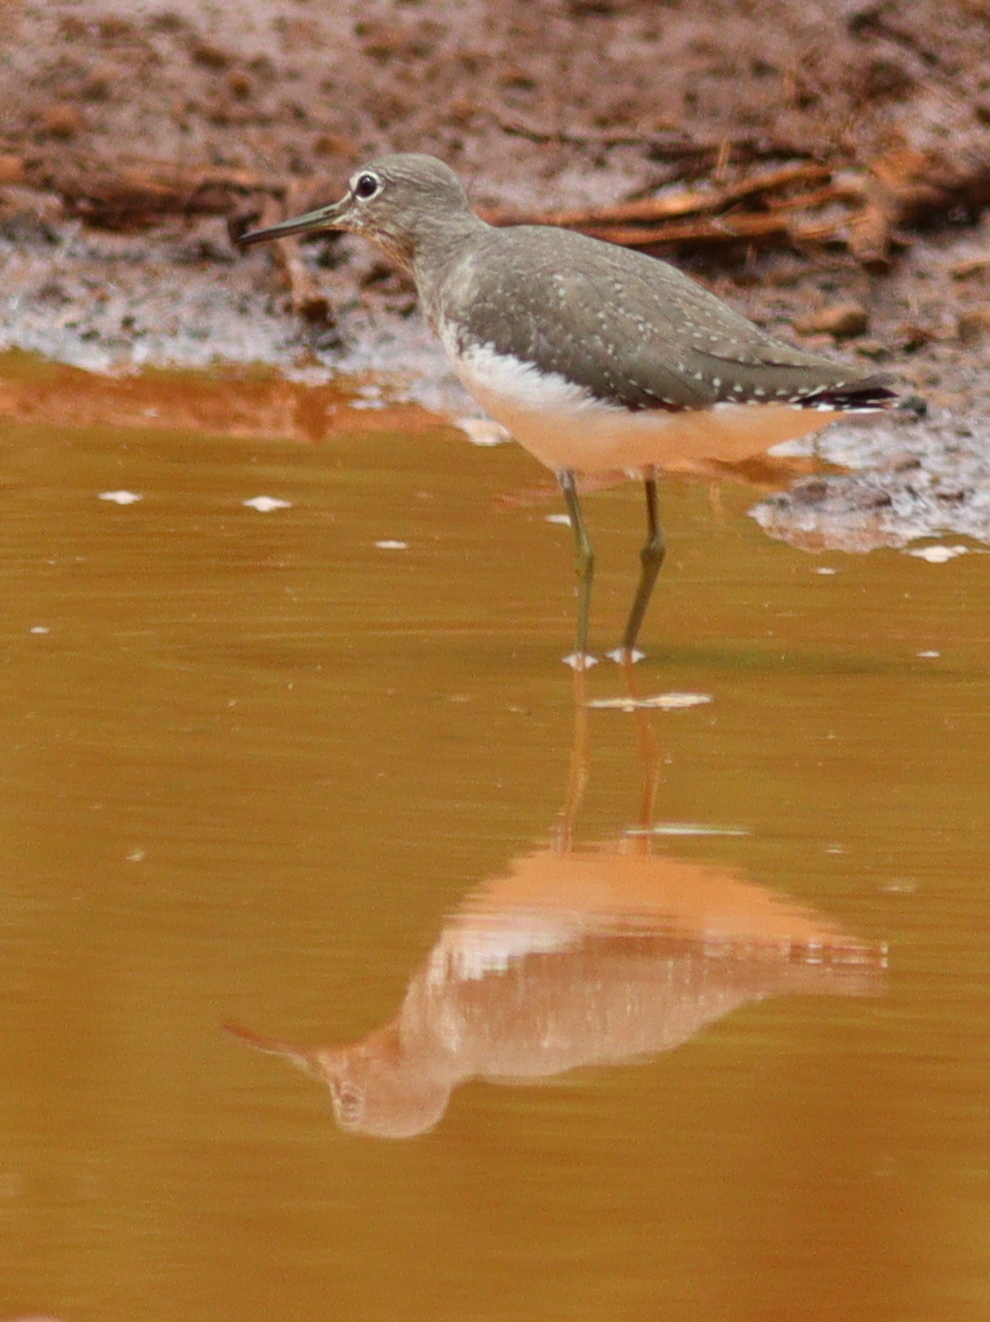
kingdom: Animalia
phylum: Chordata
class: Aves
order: Charadriiformes
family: Scolopacidae
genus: Tringa
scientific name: Tringa ochropus
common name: Green sandpiper
